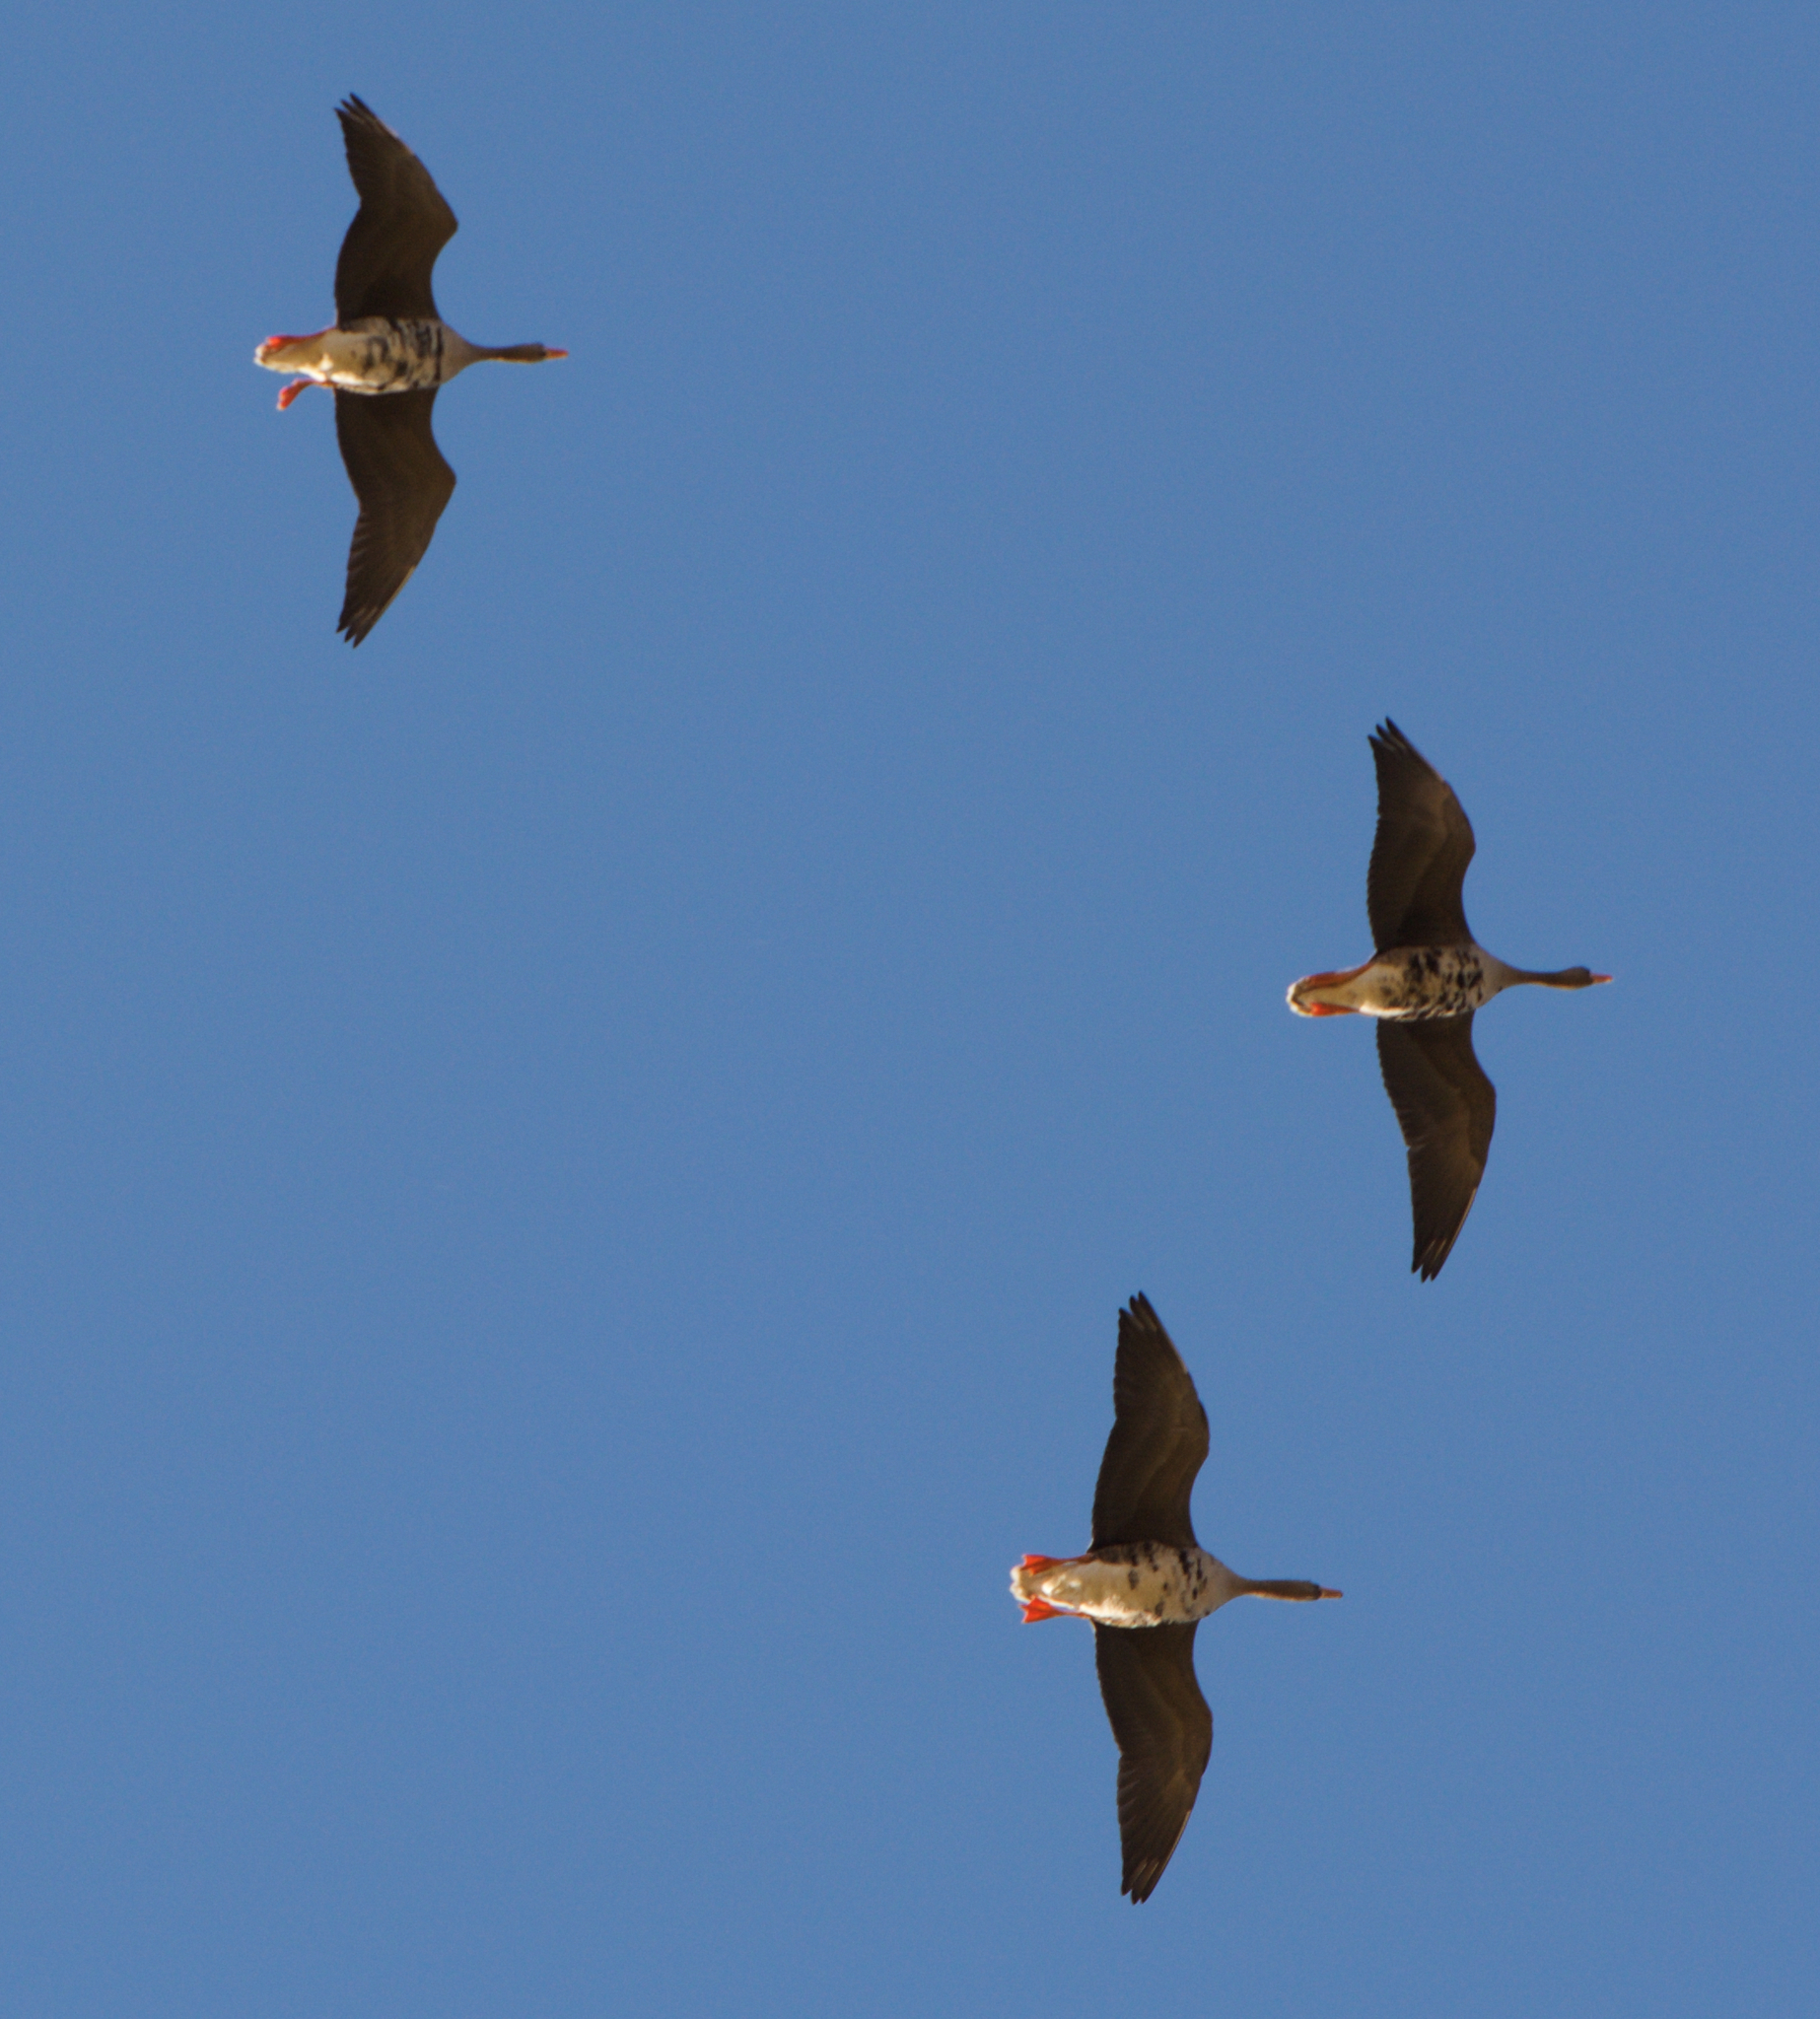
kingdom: Animalia
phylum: Chordata
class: Aves
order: Anseriformes
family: Anatidae
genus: Anser
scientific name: Anser albifrons
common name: Greater white-fronted goose
